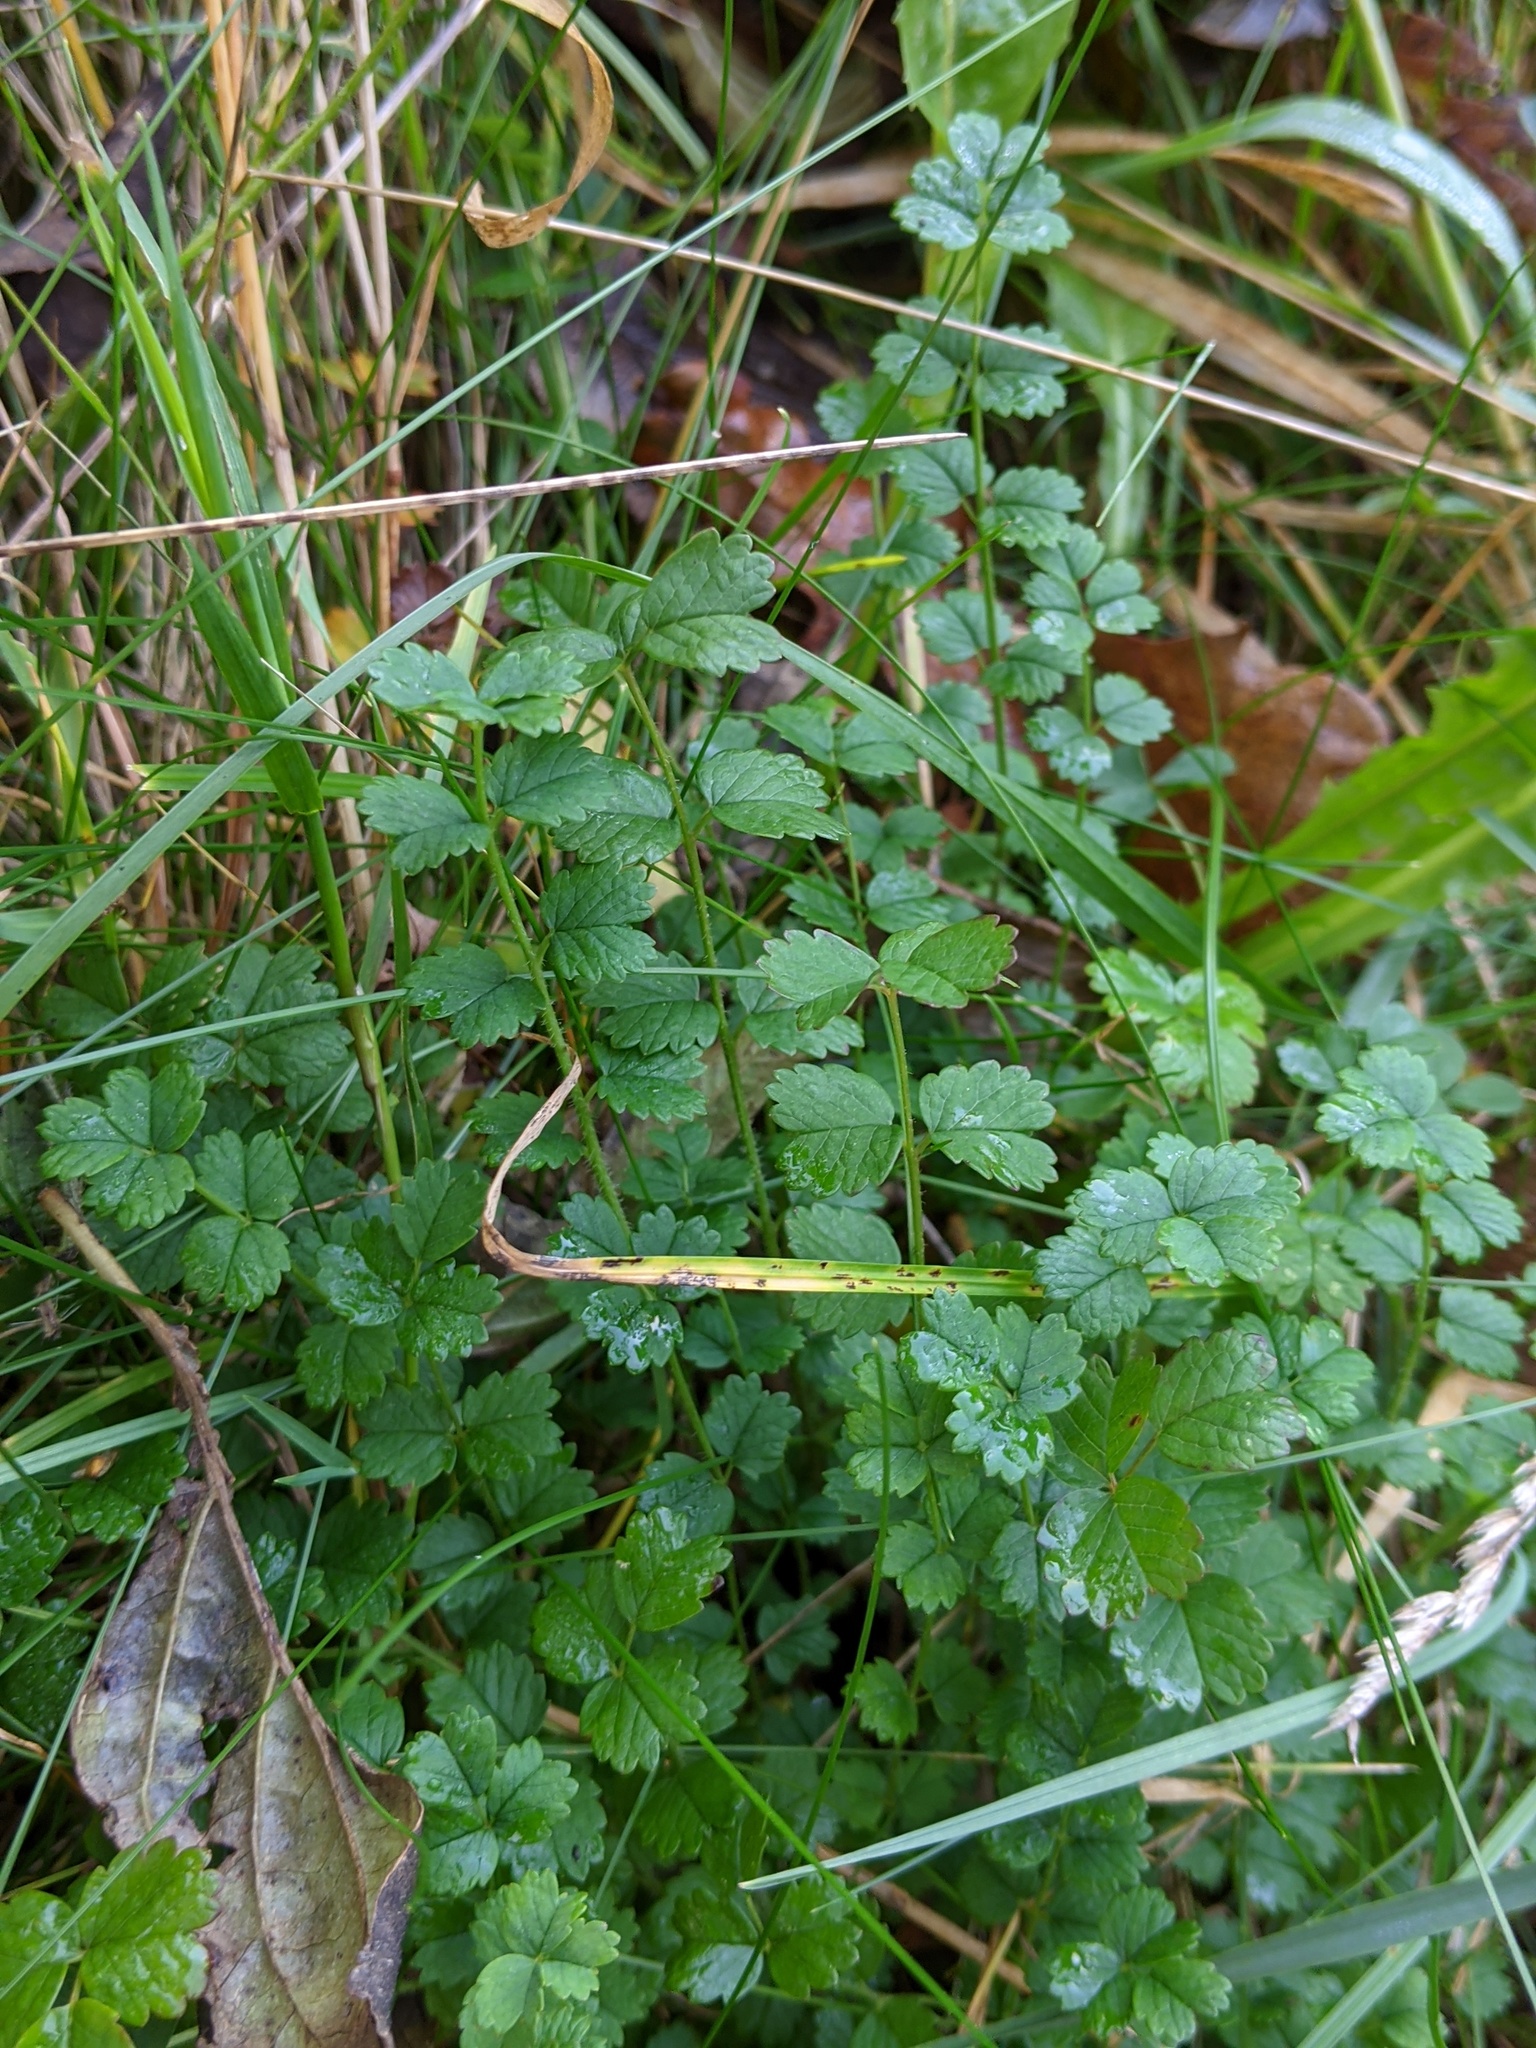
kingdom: Plantae
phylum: Tracheophyta
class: Magnoliopsida
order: Rosales
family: Rosaceae
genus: Poterium
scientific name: Poterium sanguisorba
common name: Salad burnet
